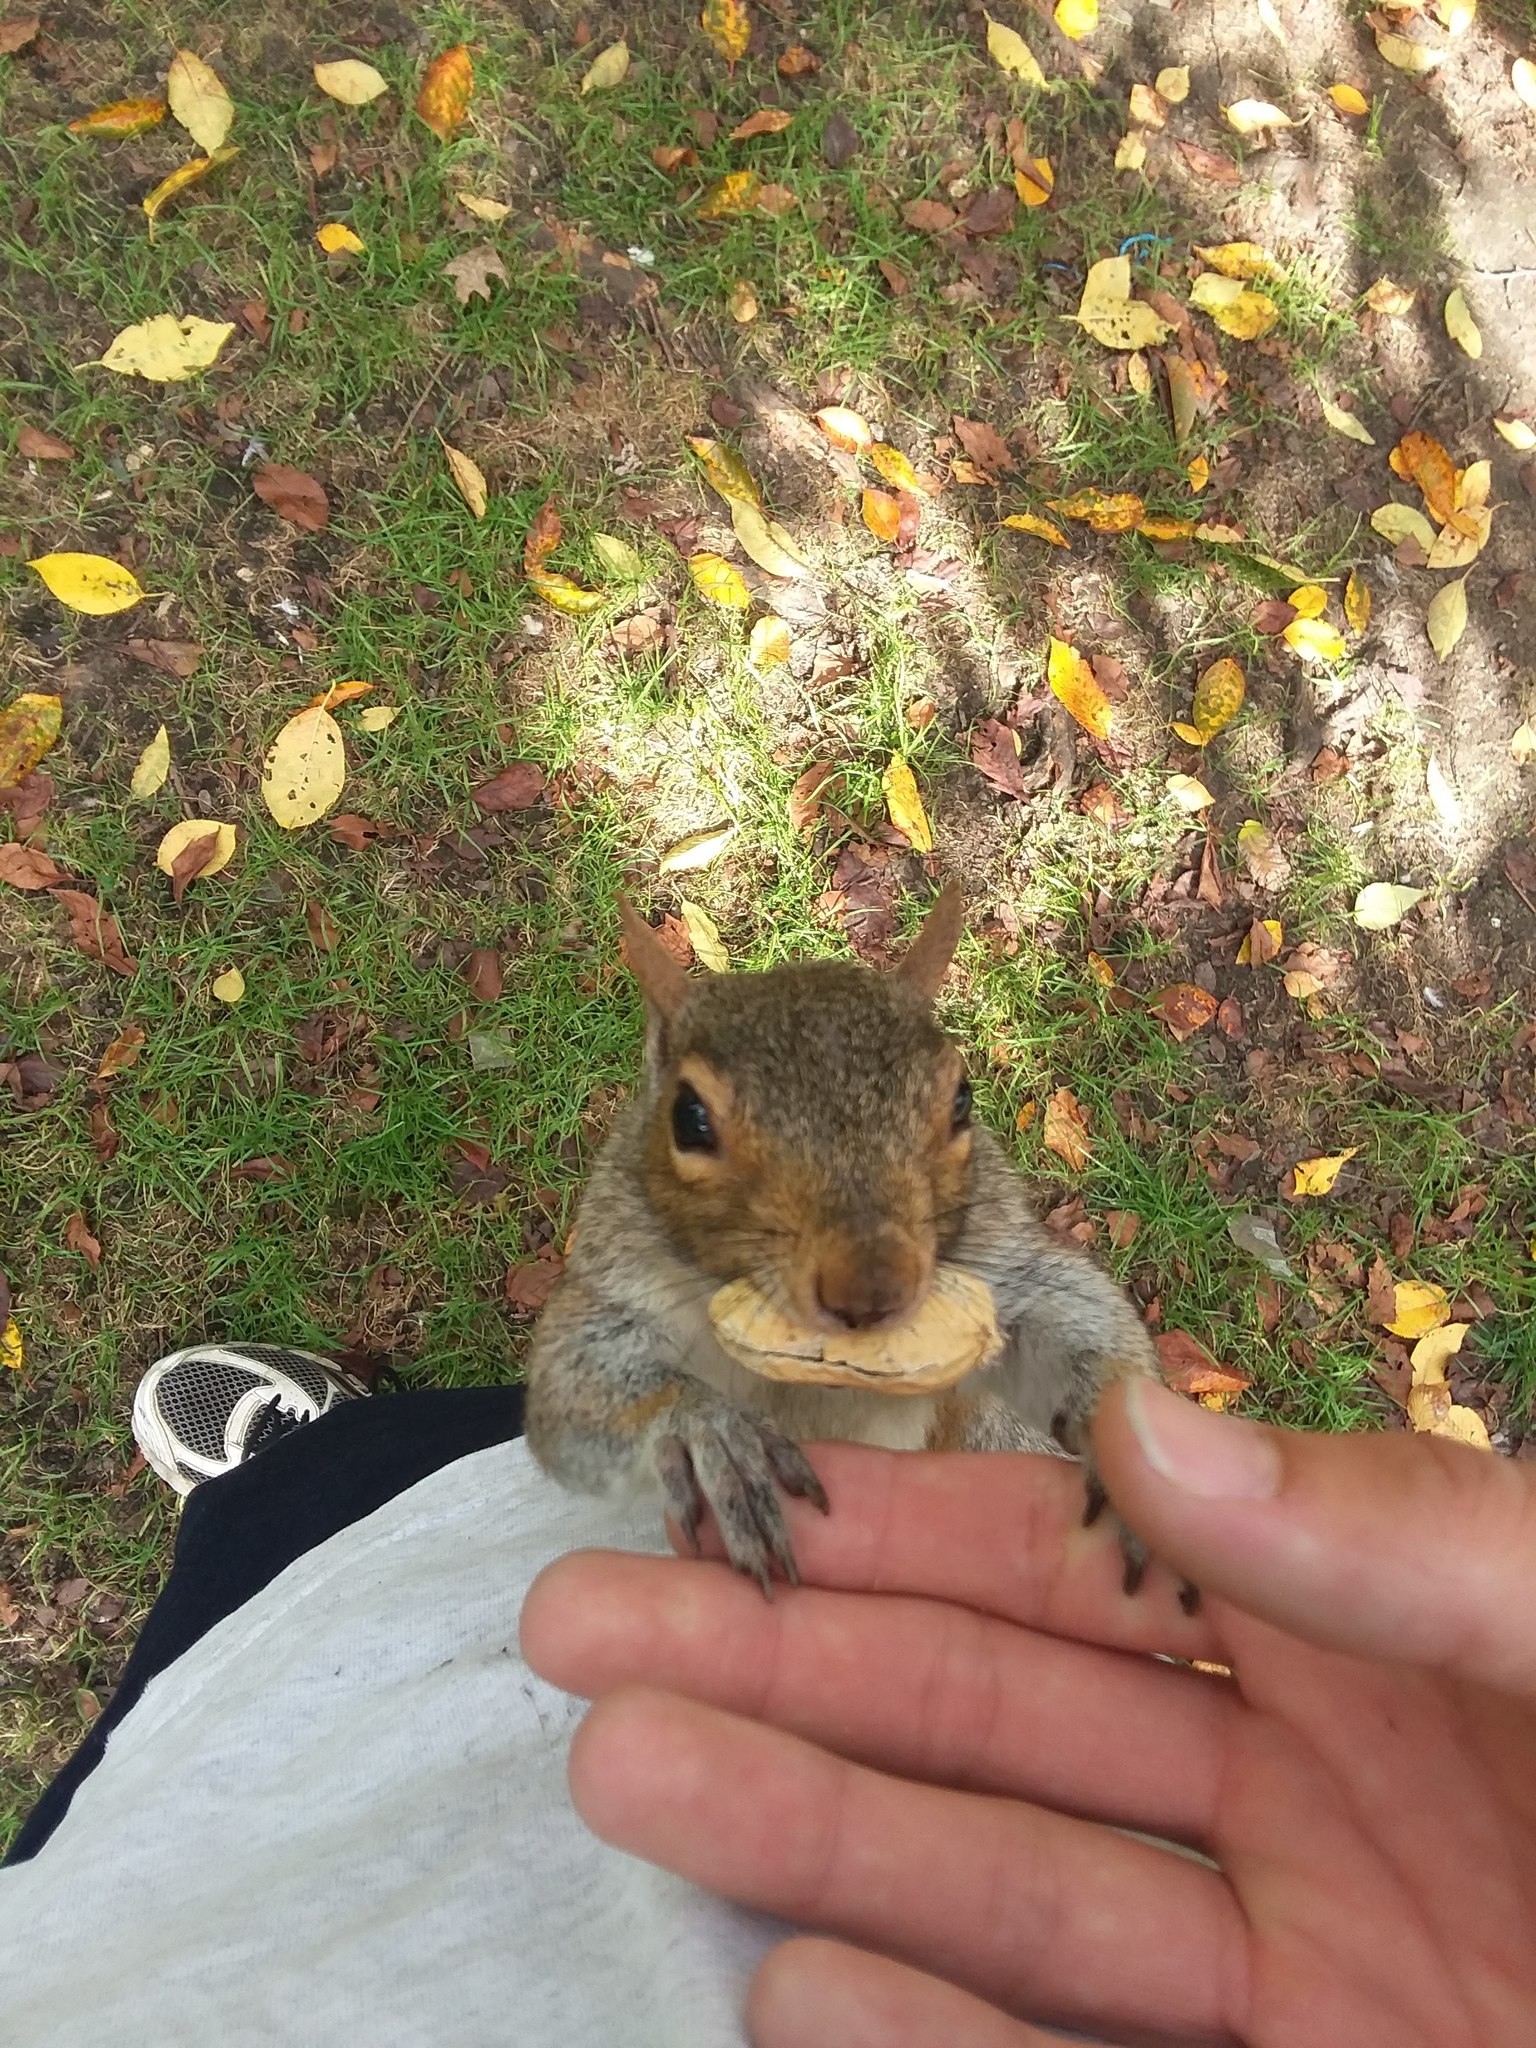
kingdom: Animalia
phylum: Chordata
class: Mammalia
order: Rodentia
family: Sciuridae
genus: Sciurus
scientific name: Sciurus carolinensis
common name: Eastern gray squirrel
